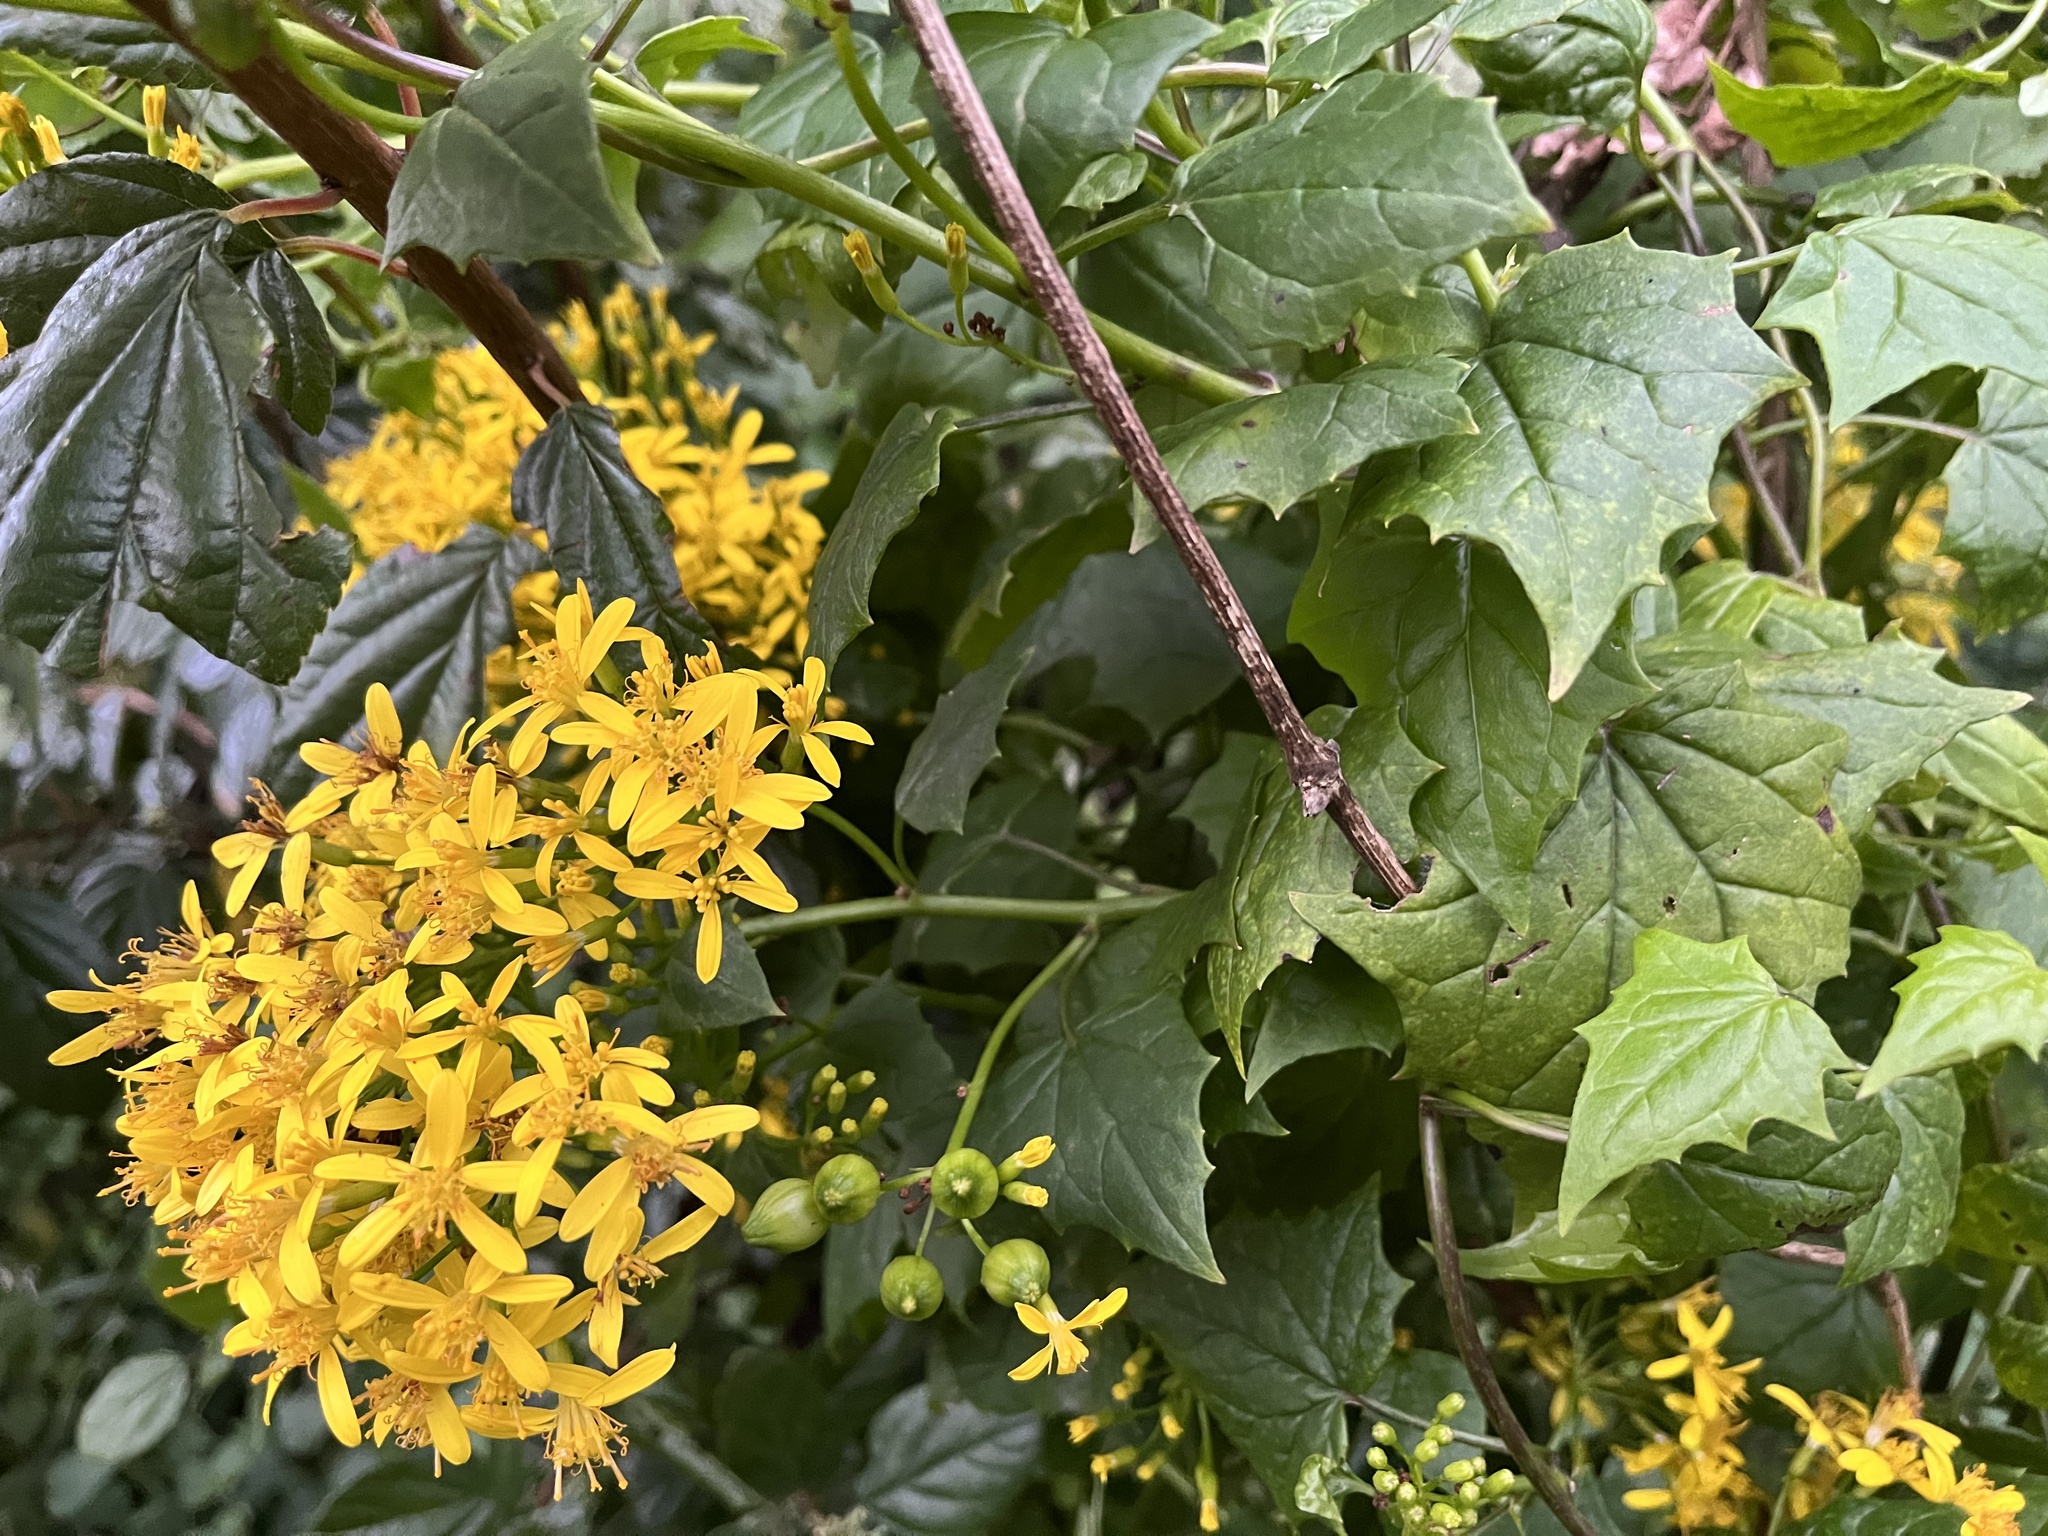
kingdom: Plantae
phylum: Tracheophyta
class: Magnoliopsida
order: Asterales
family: Asteraceae
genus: Senecio
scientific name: Senecio tamoides
